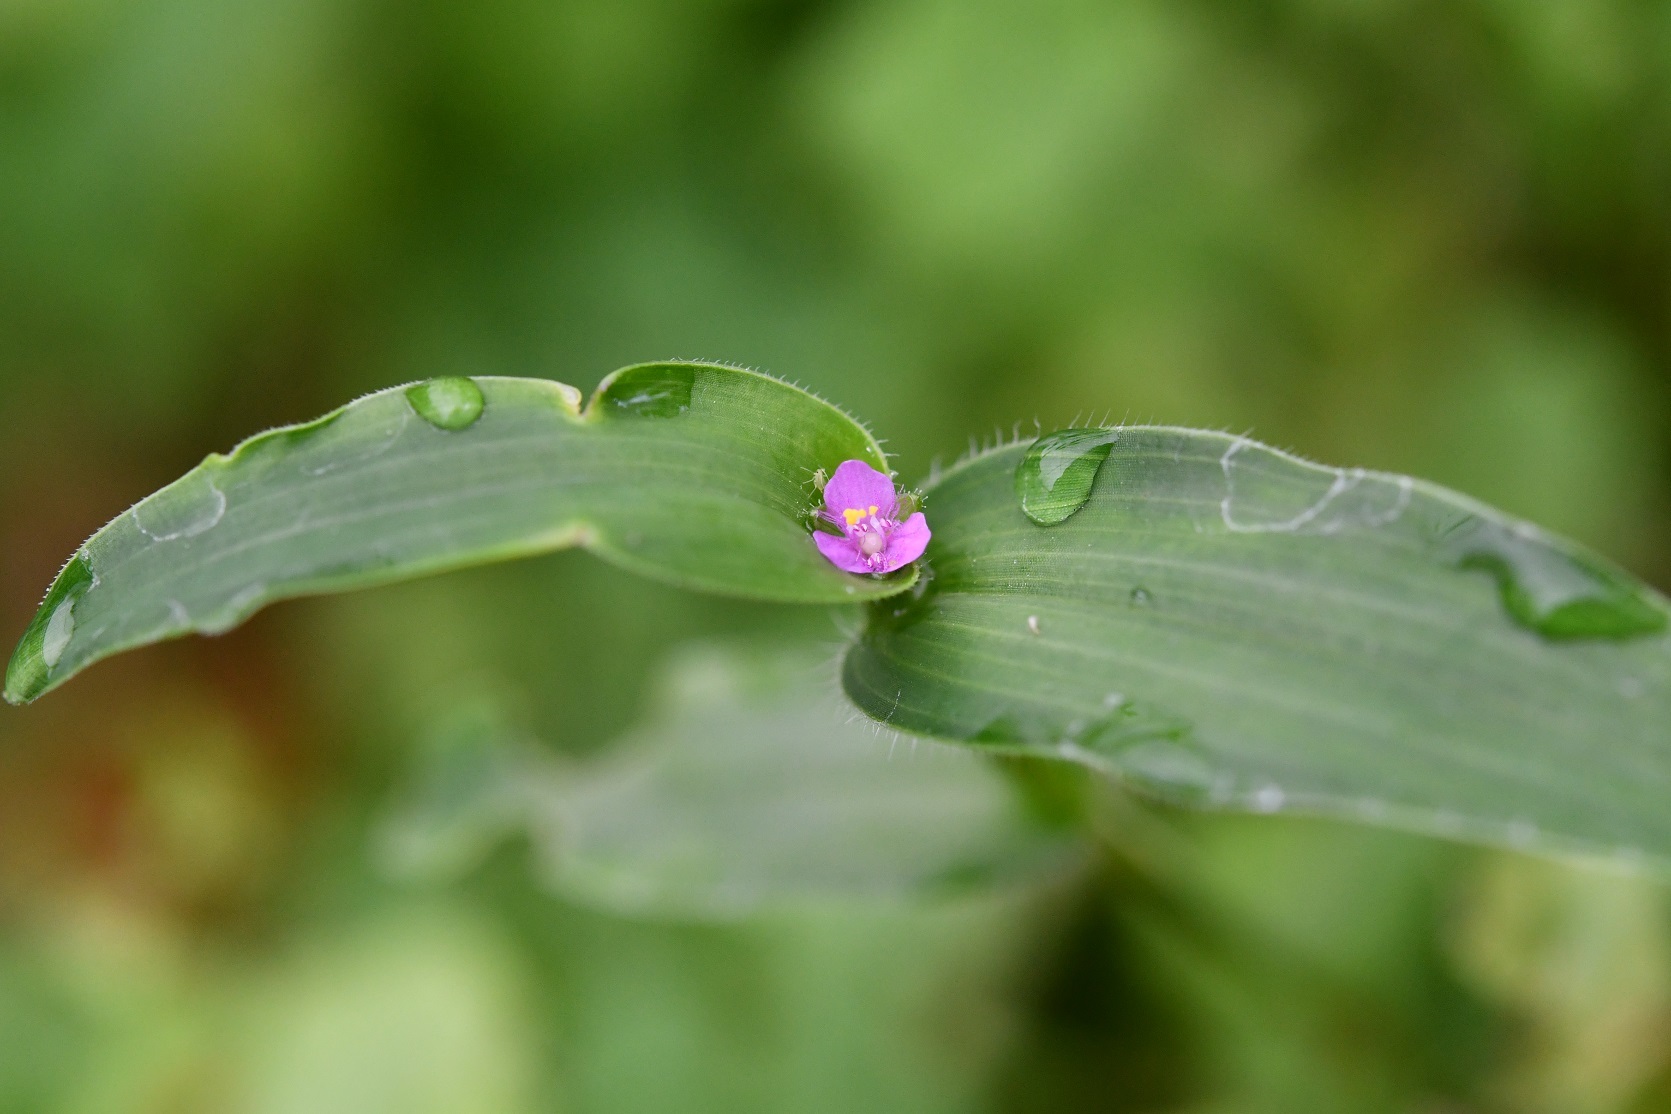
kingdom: Plantae
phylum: Tracheophyta
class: Liliopsida
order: Commelinales
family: Commelinaceae
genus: Callisia
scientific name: Callisia purpurascens
